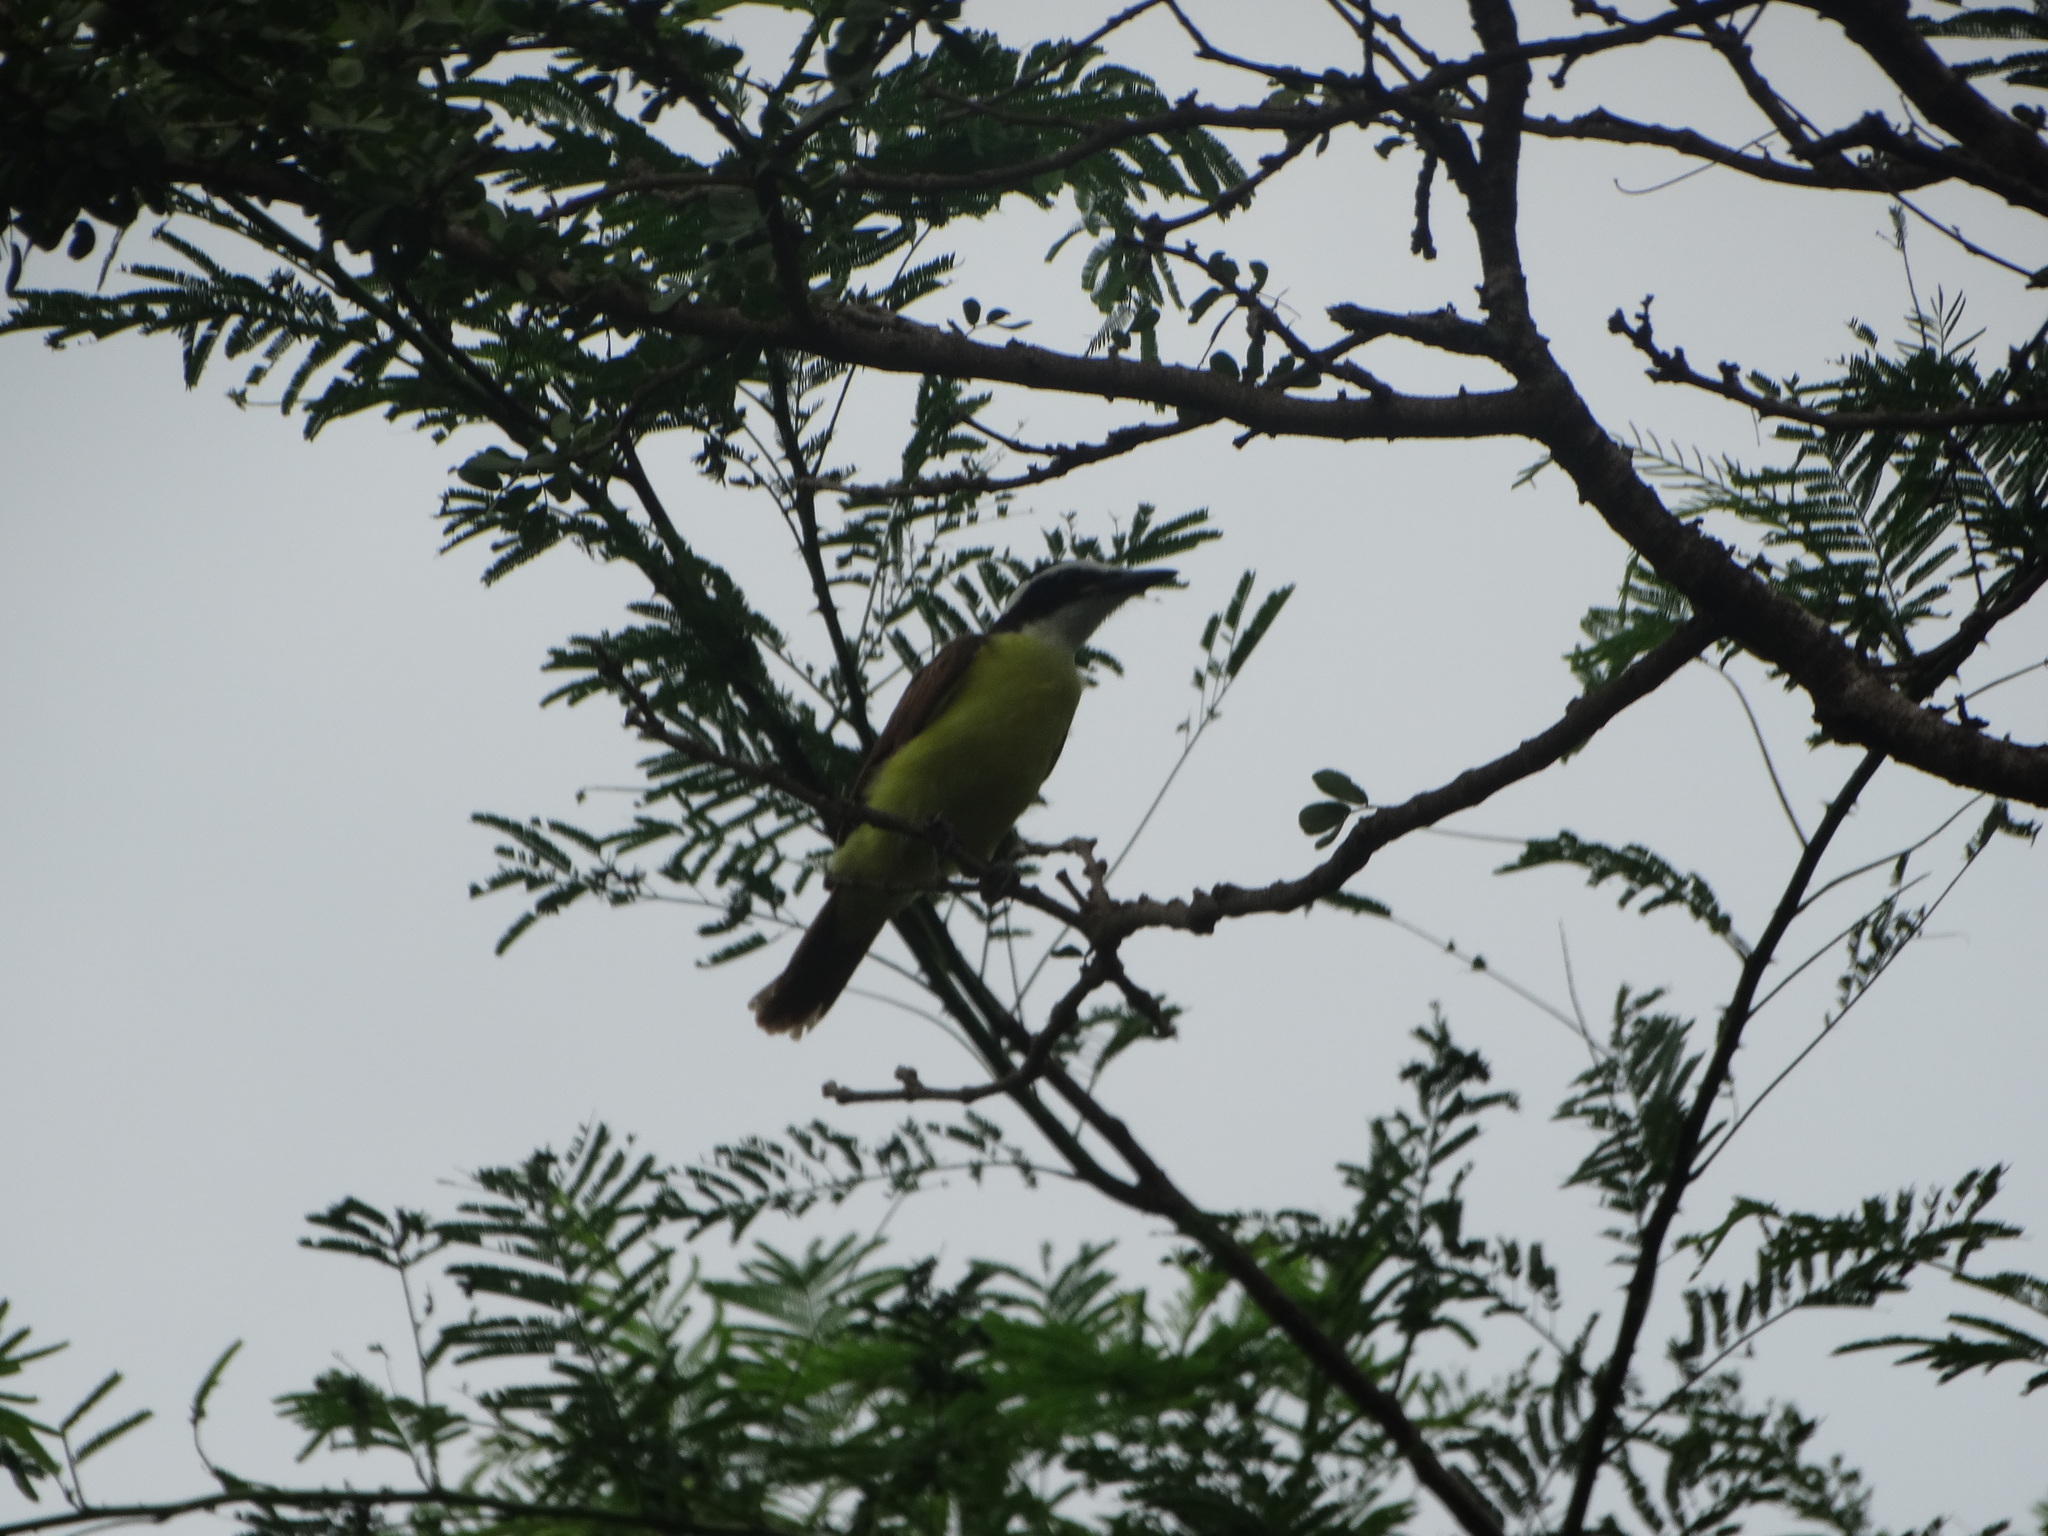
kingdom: Animalia
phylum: Chordata
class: Aves
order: Passeriformes
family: Tyrannidae
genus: Pitangus
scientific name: Pitangus sulphuratus
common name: Great kiskadee
